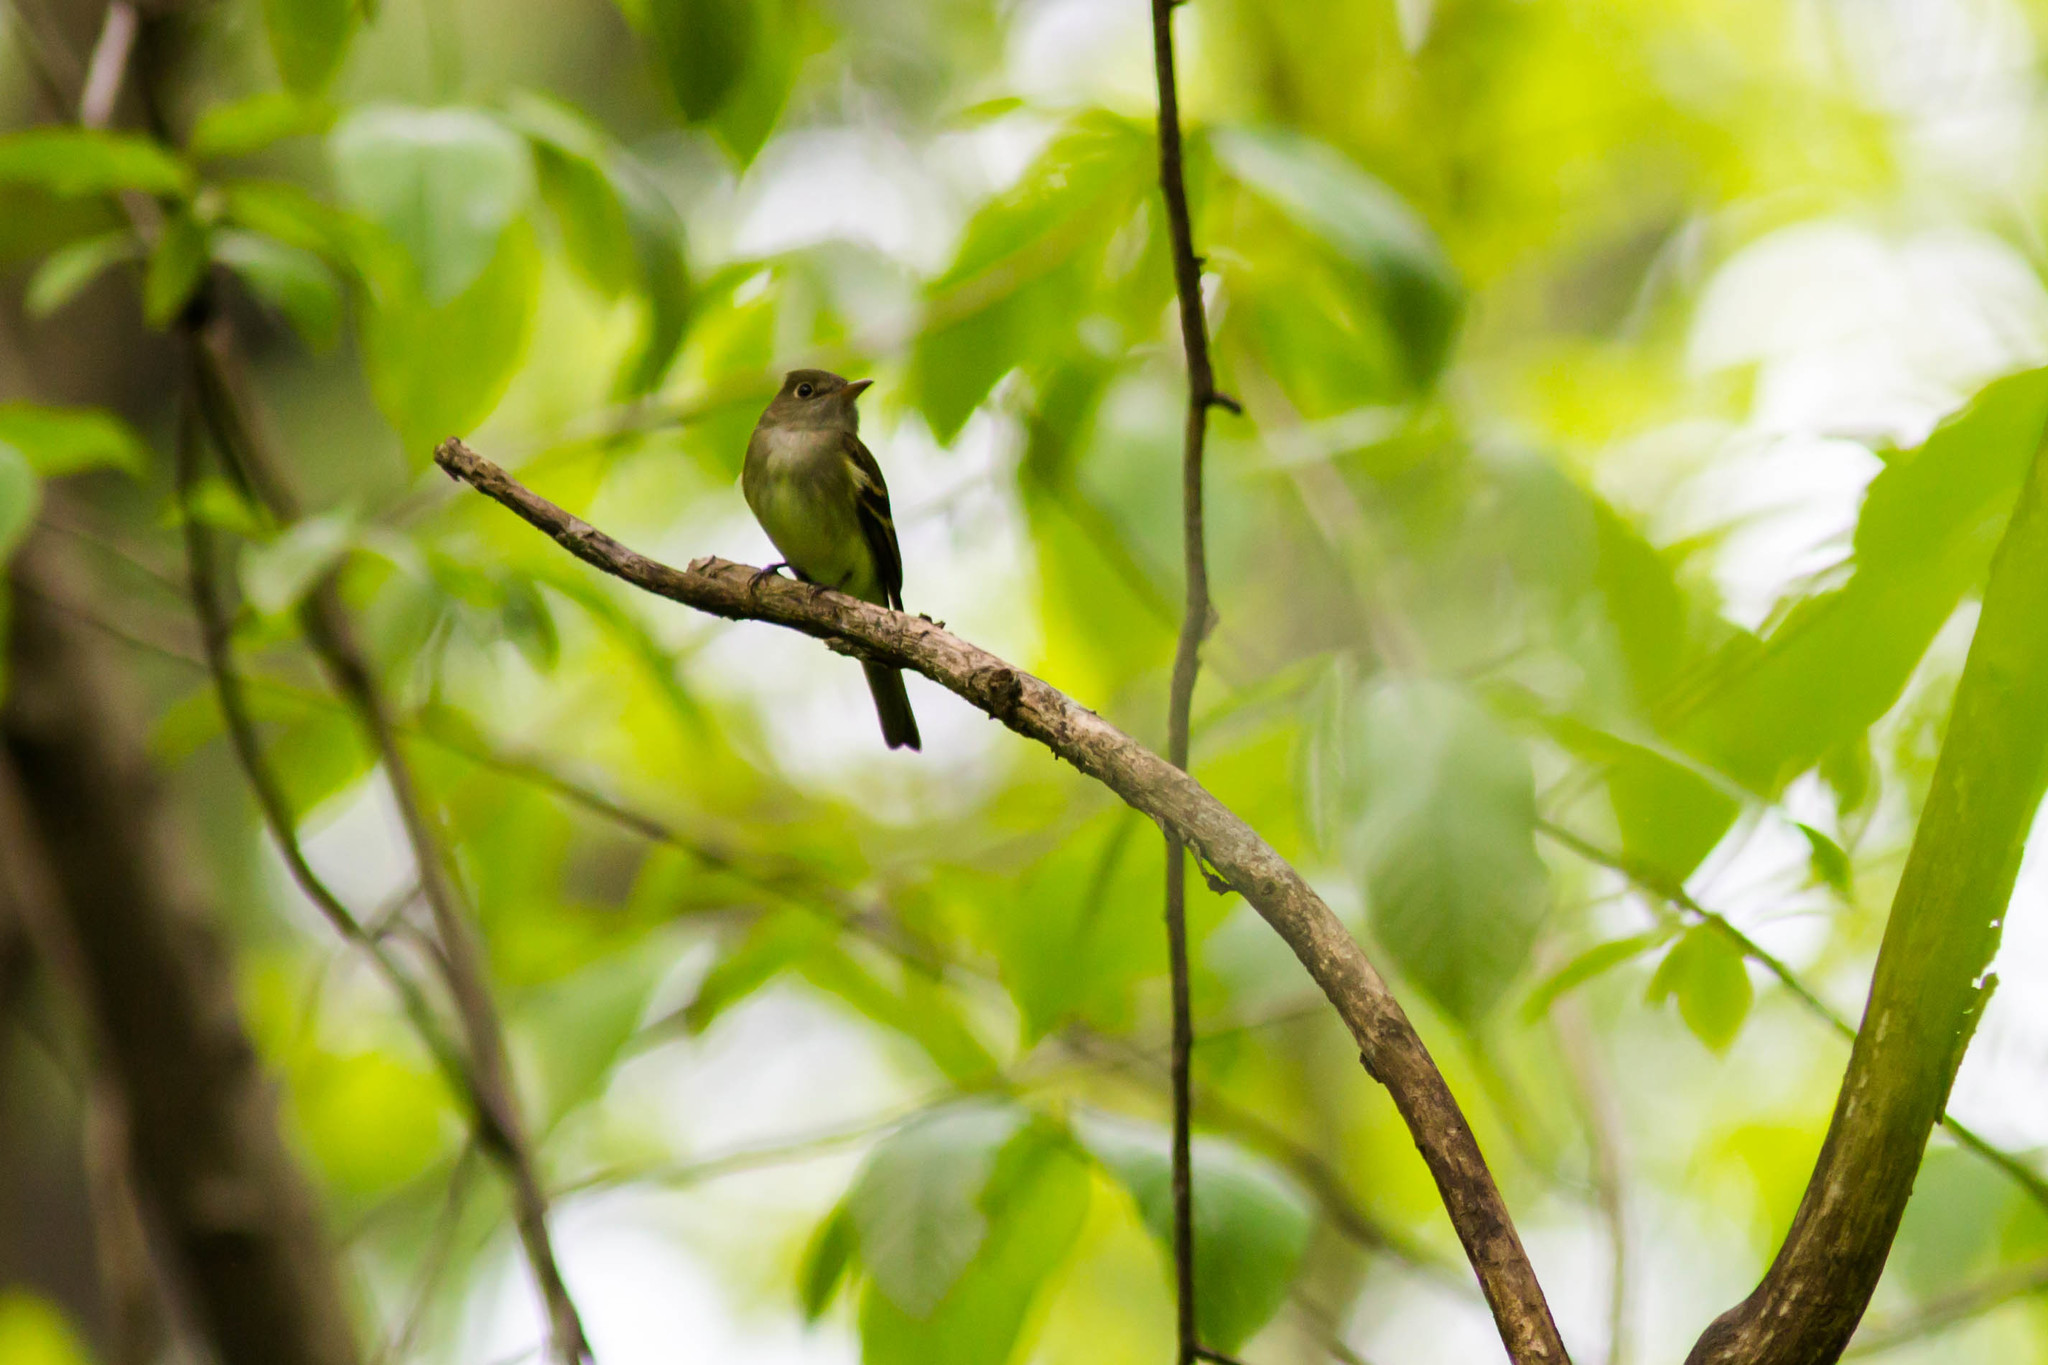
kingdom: Animalia
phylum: Chordata
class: Aves
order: Passeriformes
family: Tyrannidae
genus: Empidonax
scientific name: Empidonax virescens
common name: Acadian flycatcher
